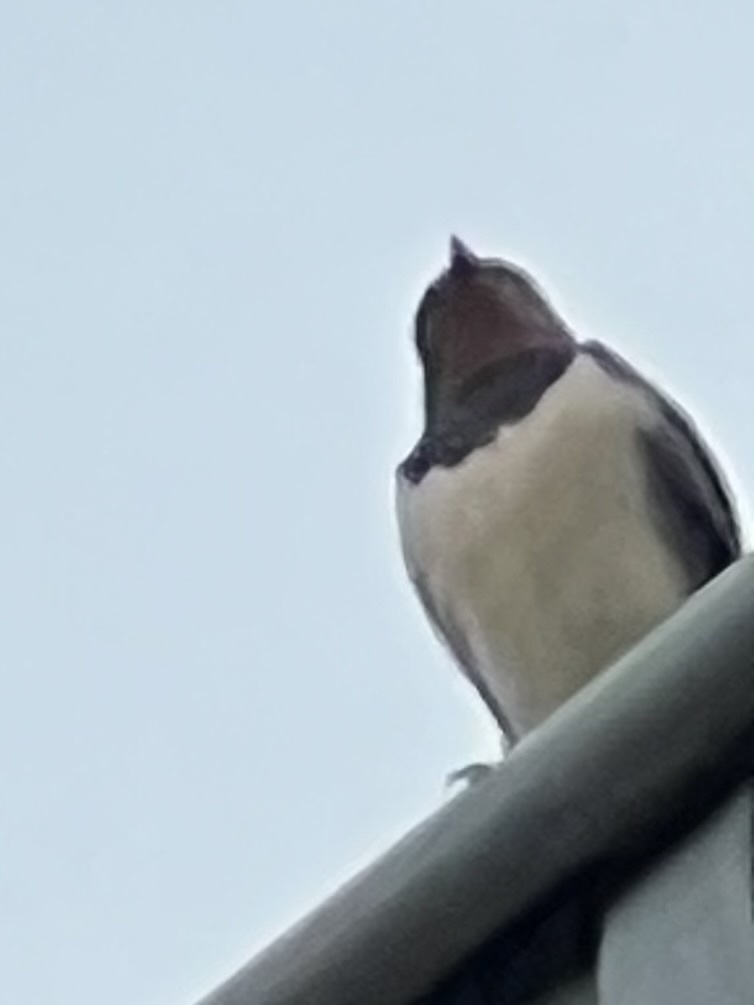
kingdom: Animalia
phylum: Chordata
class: Aves
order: Passeriformes
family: Hirundinidae
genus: Hirundo
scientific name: Hirundo rustica
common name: Barn swallow
